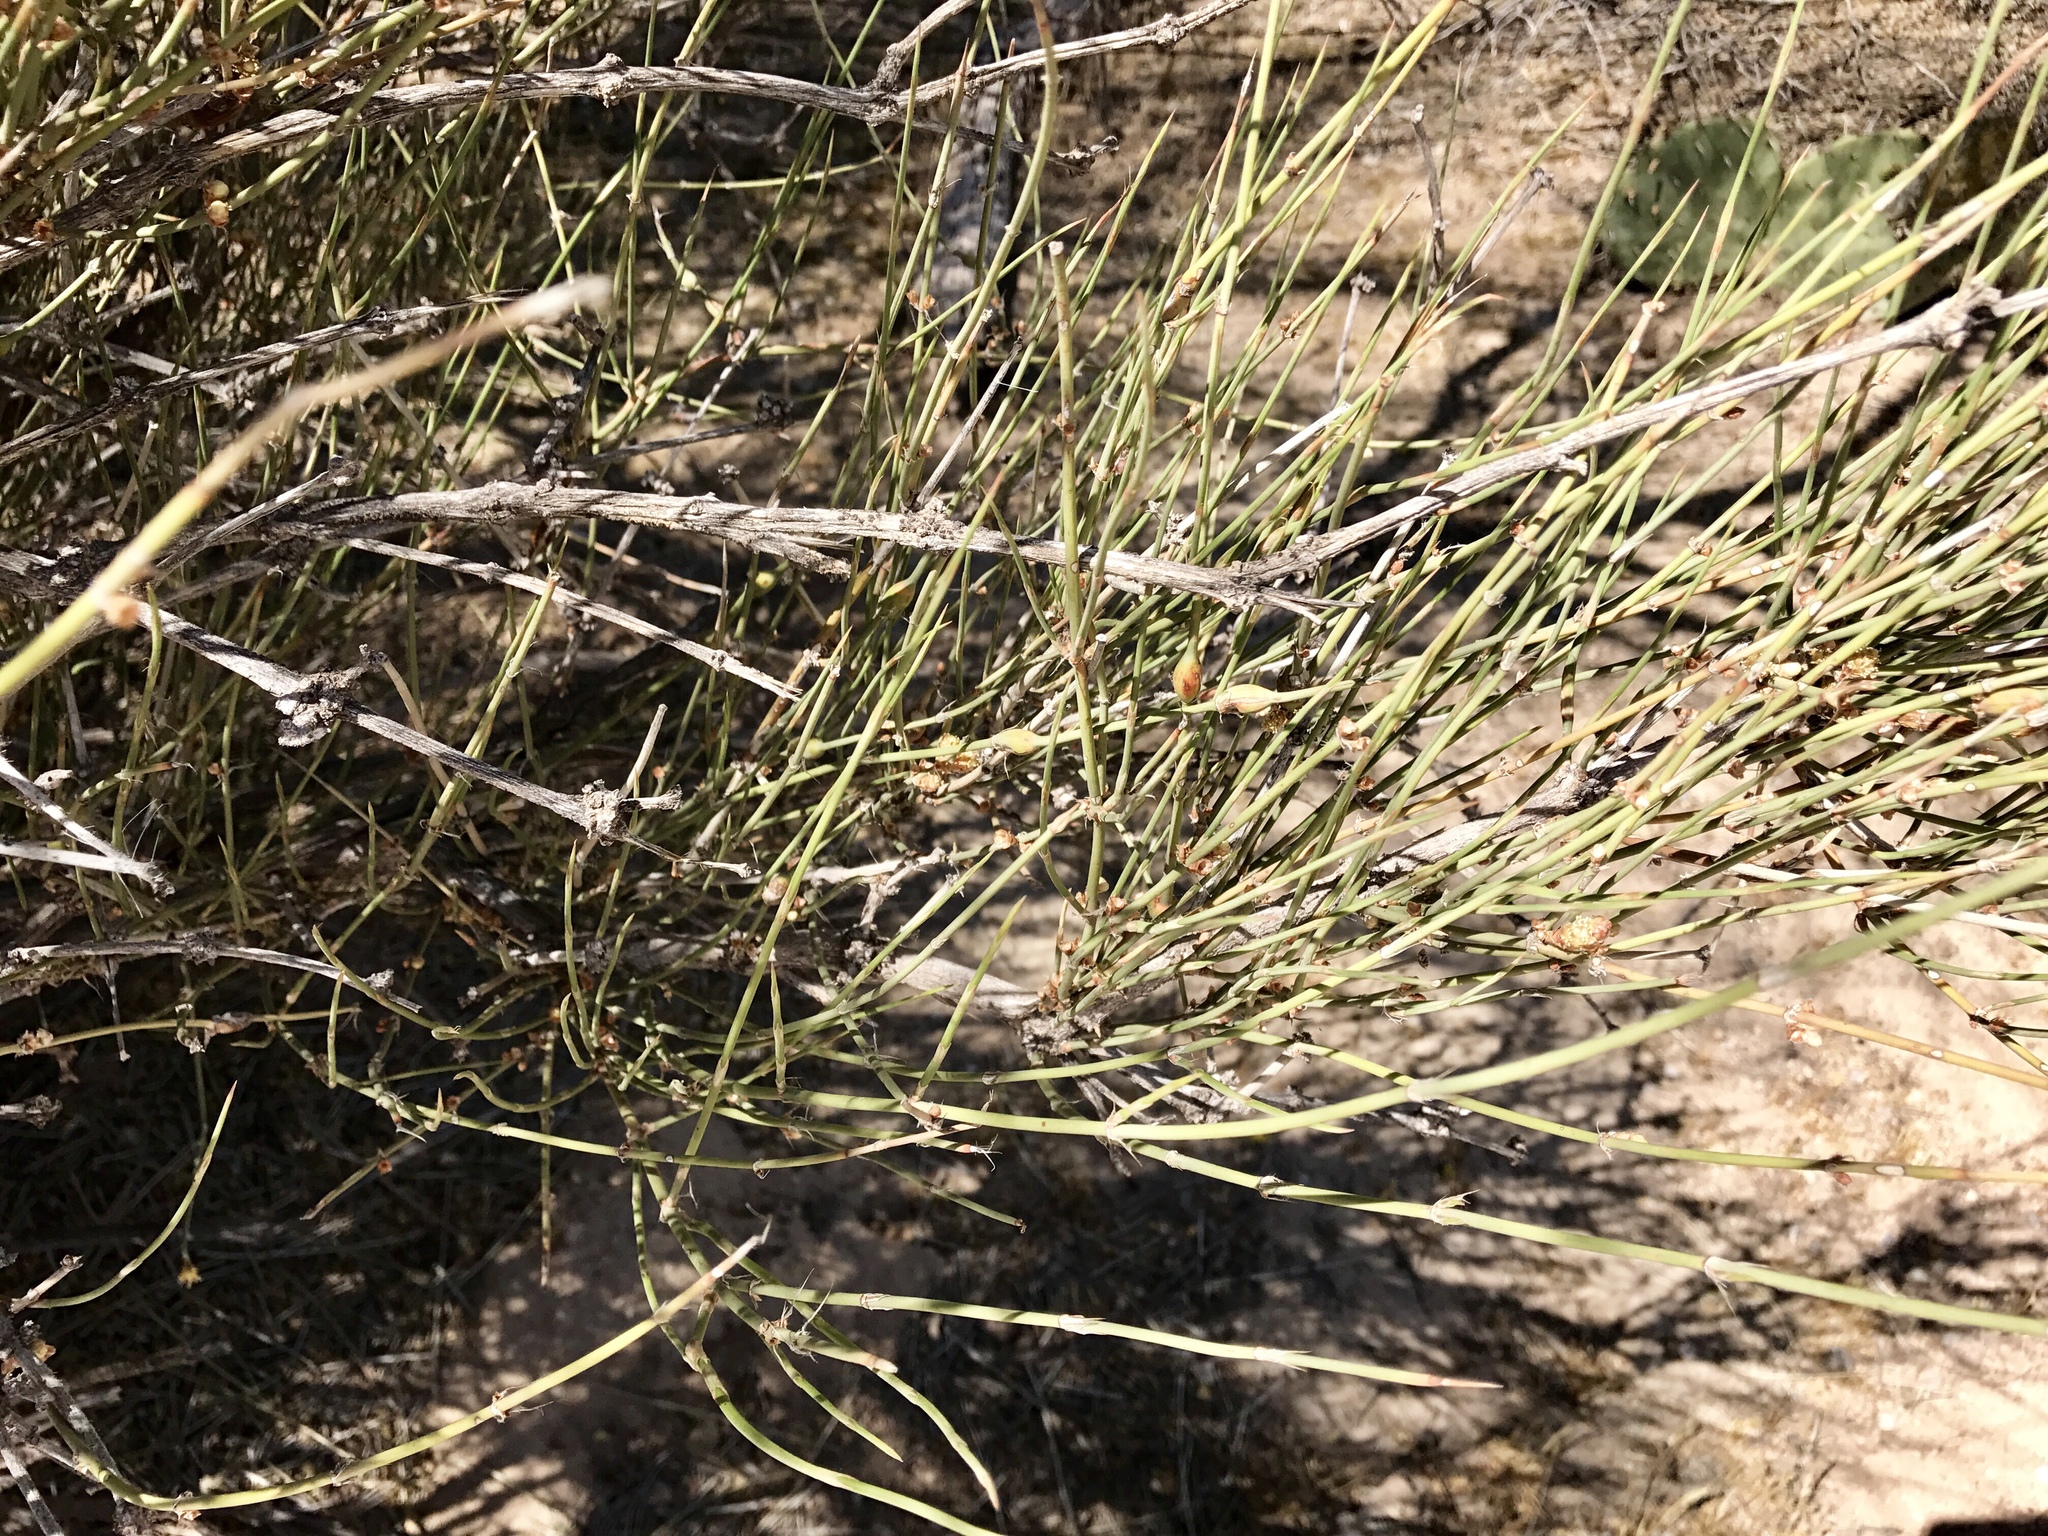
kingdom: Plantae
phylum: Tracheophyta
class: Gnetopsida
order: Ephedrales
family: Ephedraceae
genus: Ephedra
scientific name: Ephedra trifurca
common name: Mexican-tea
